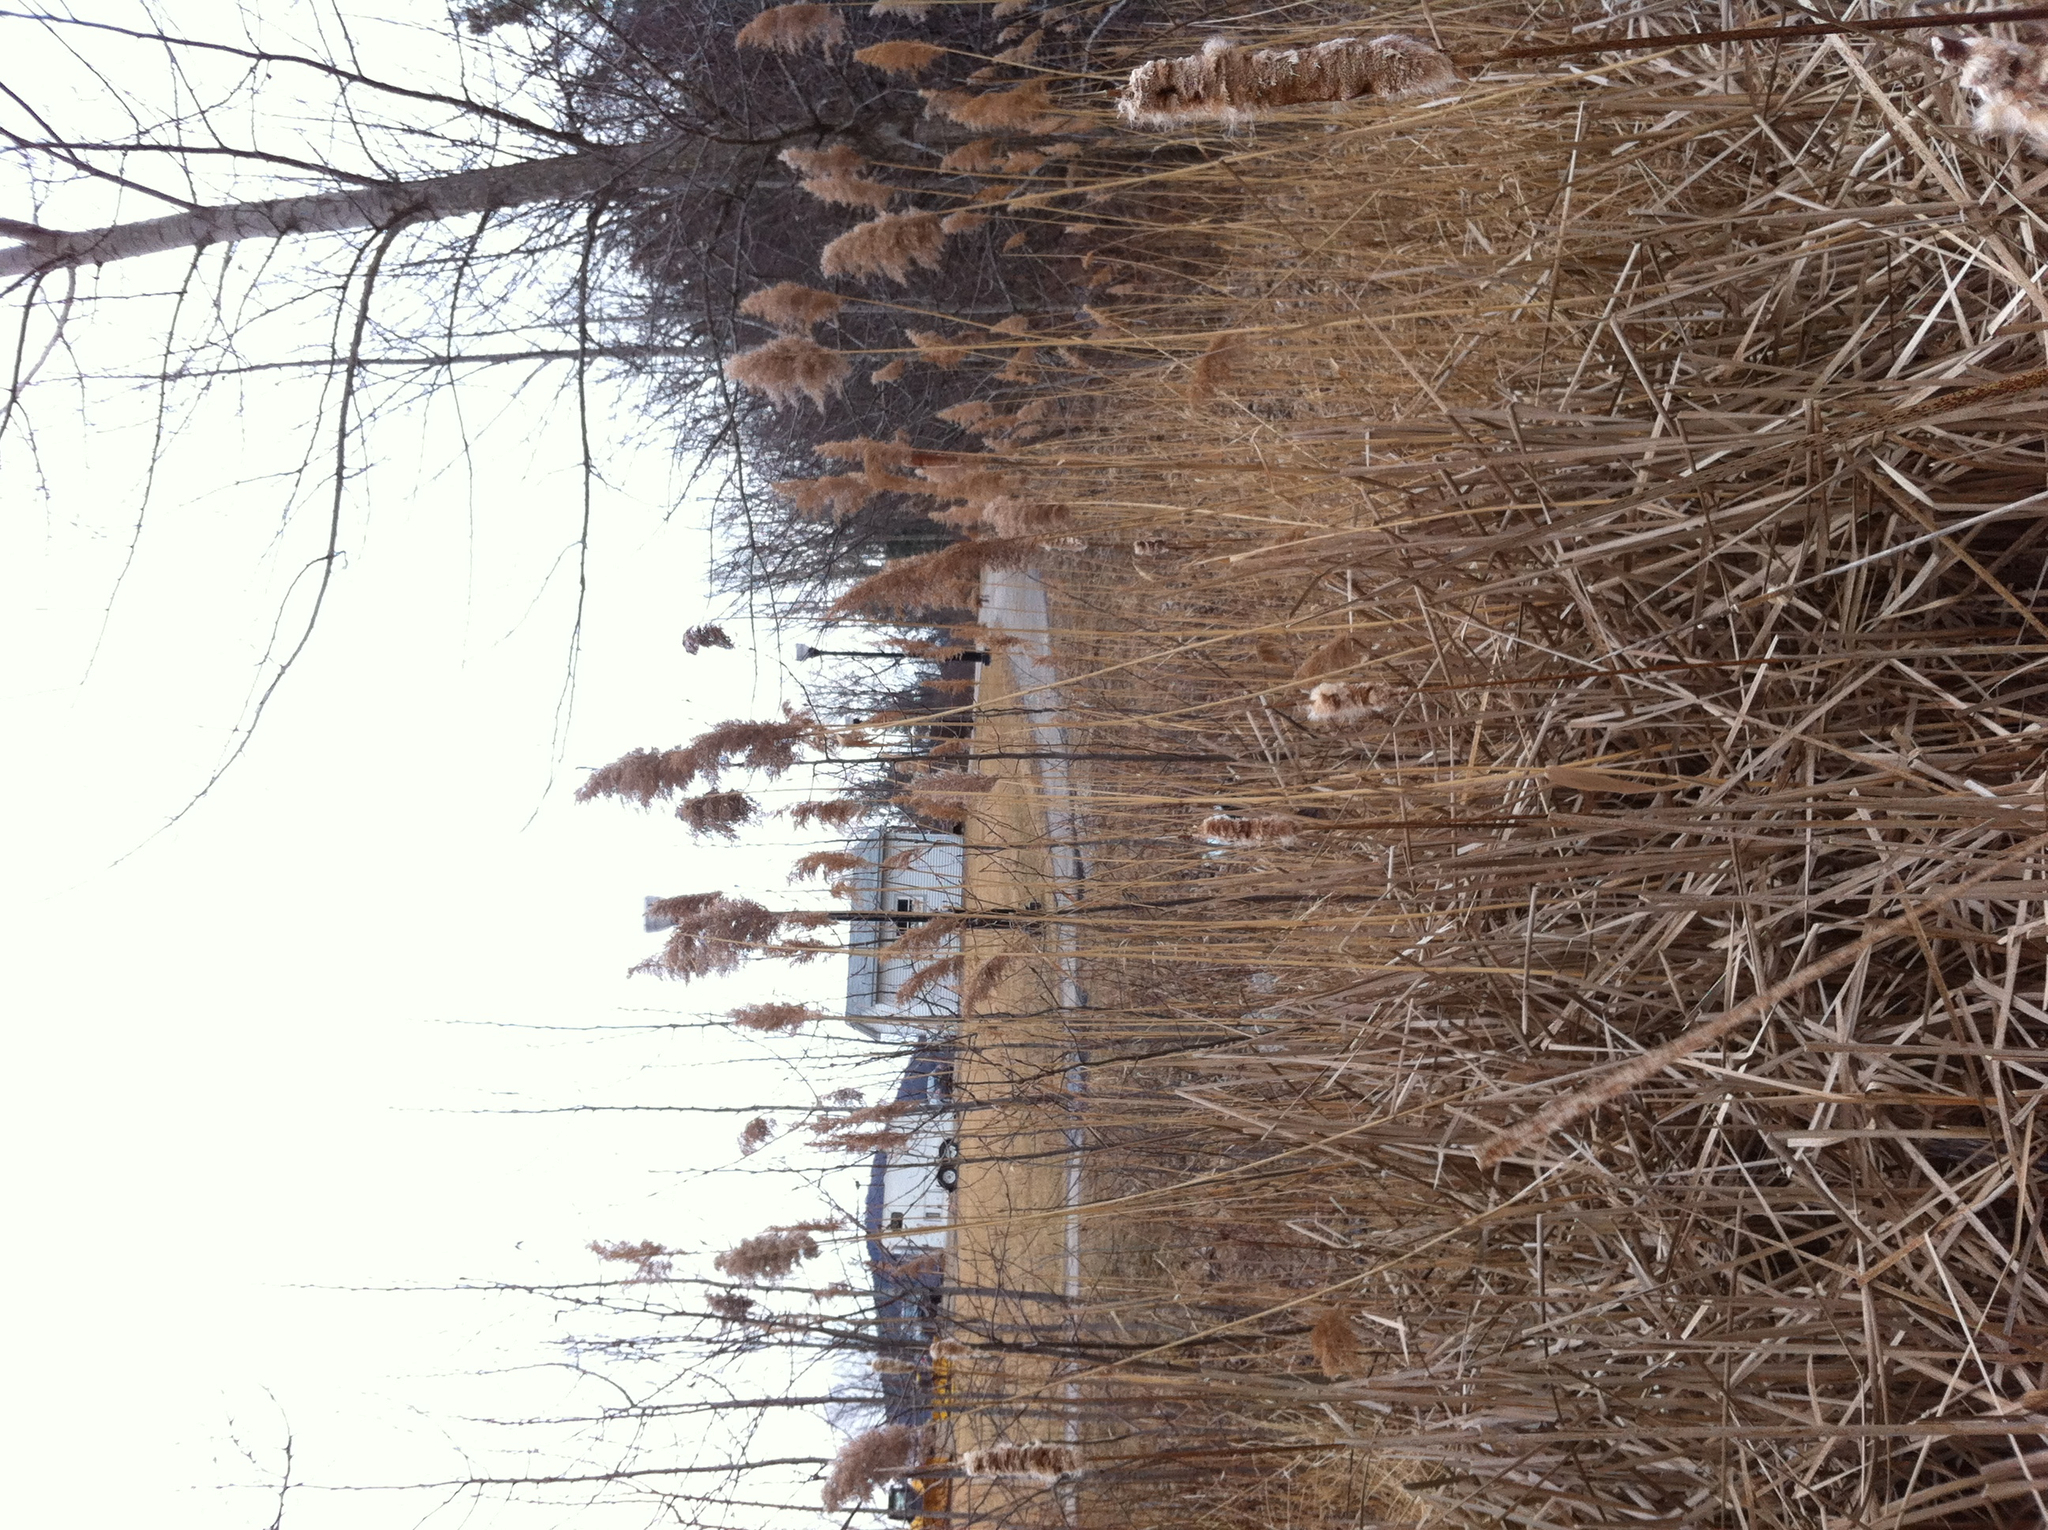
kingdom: Plantae
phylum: Tracheophyta
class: Liliopsida
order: Poales
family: Poaceae
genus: Phragmites
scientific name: Phragmites australis
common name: Common reed
